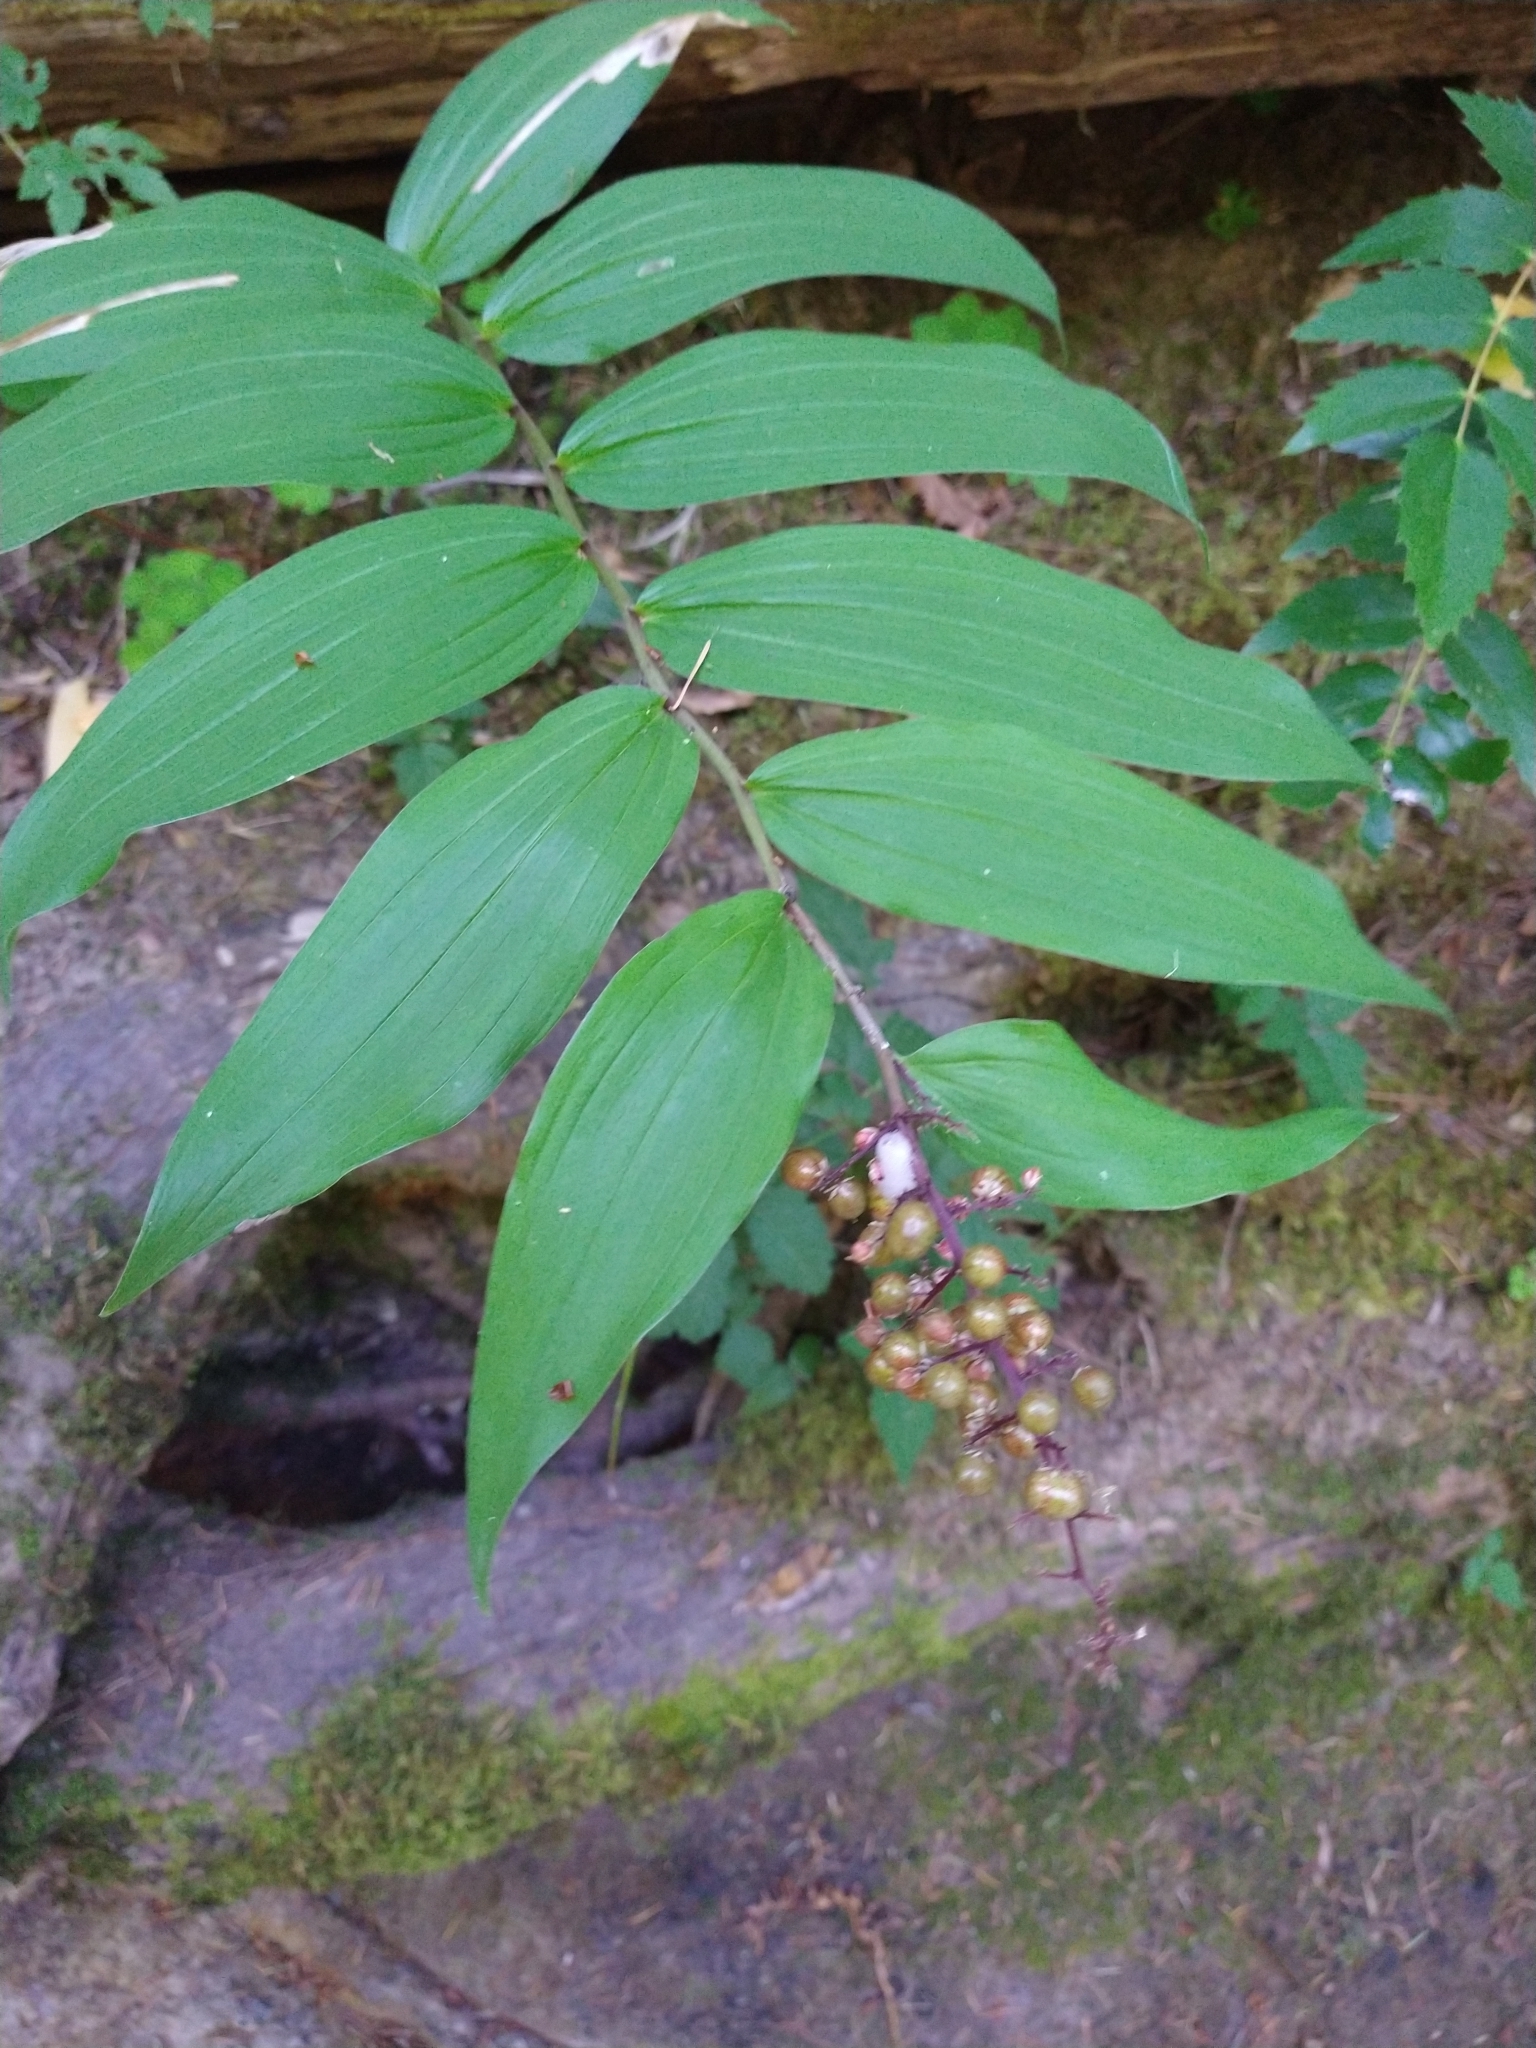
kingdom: Plantae
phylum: Tracheophyta
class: Liliopsida
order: Asparagales
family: Asparagaceae
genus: Maianthemum
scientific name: Maianthemum racemosum
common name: False spikenard
